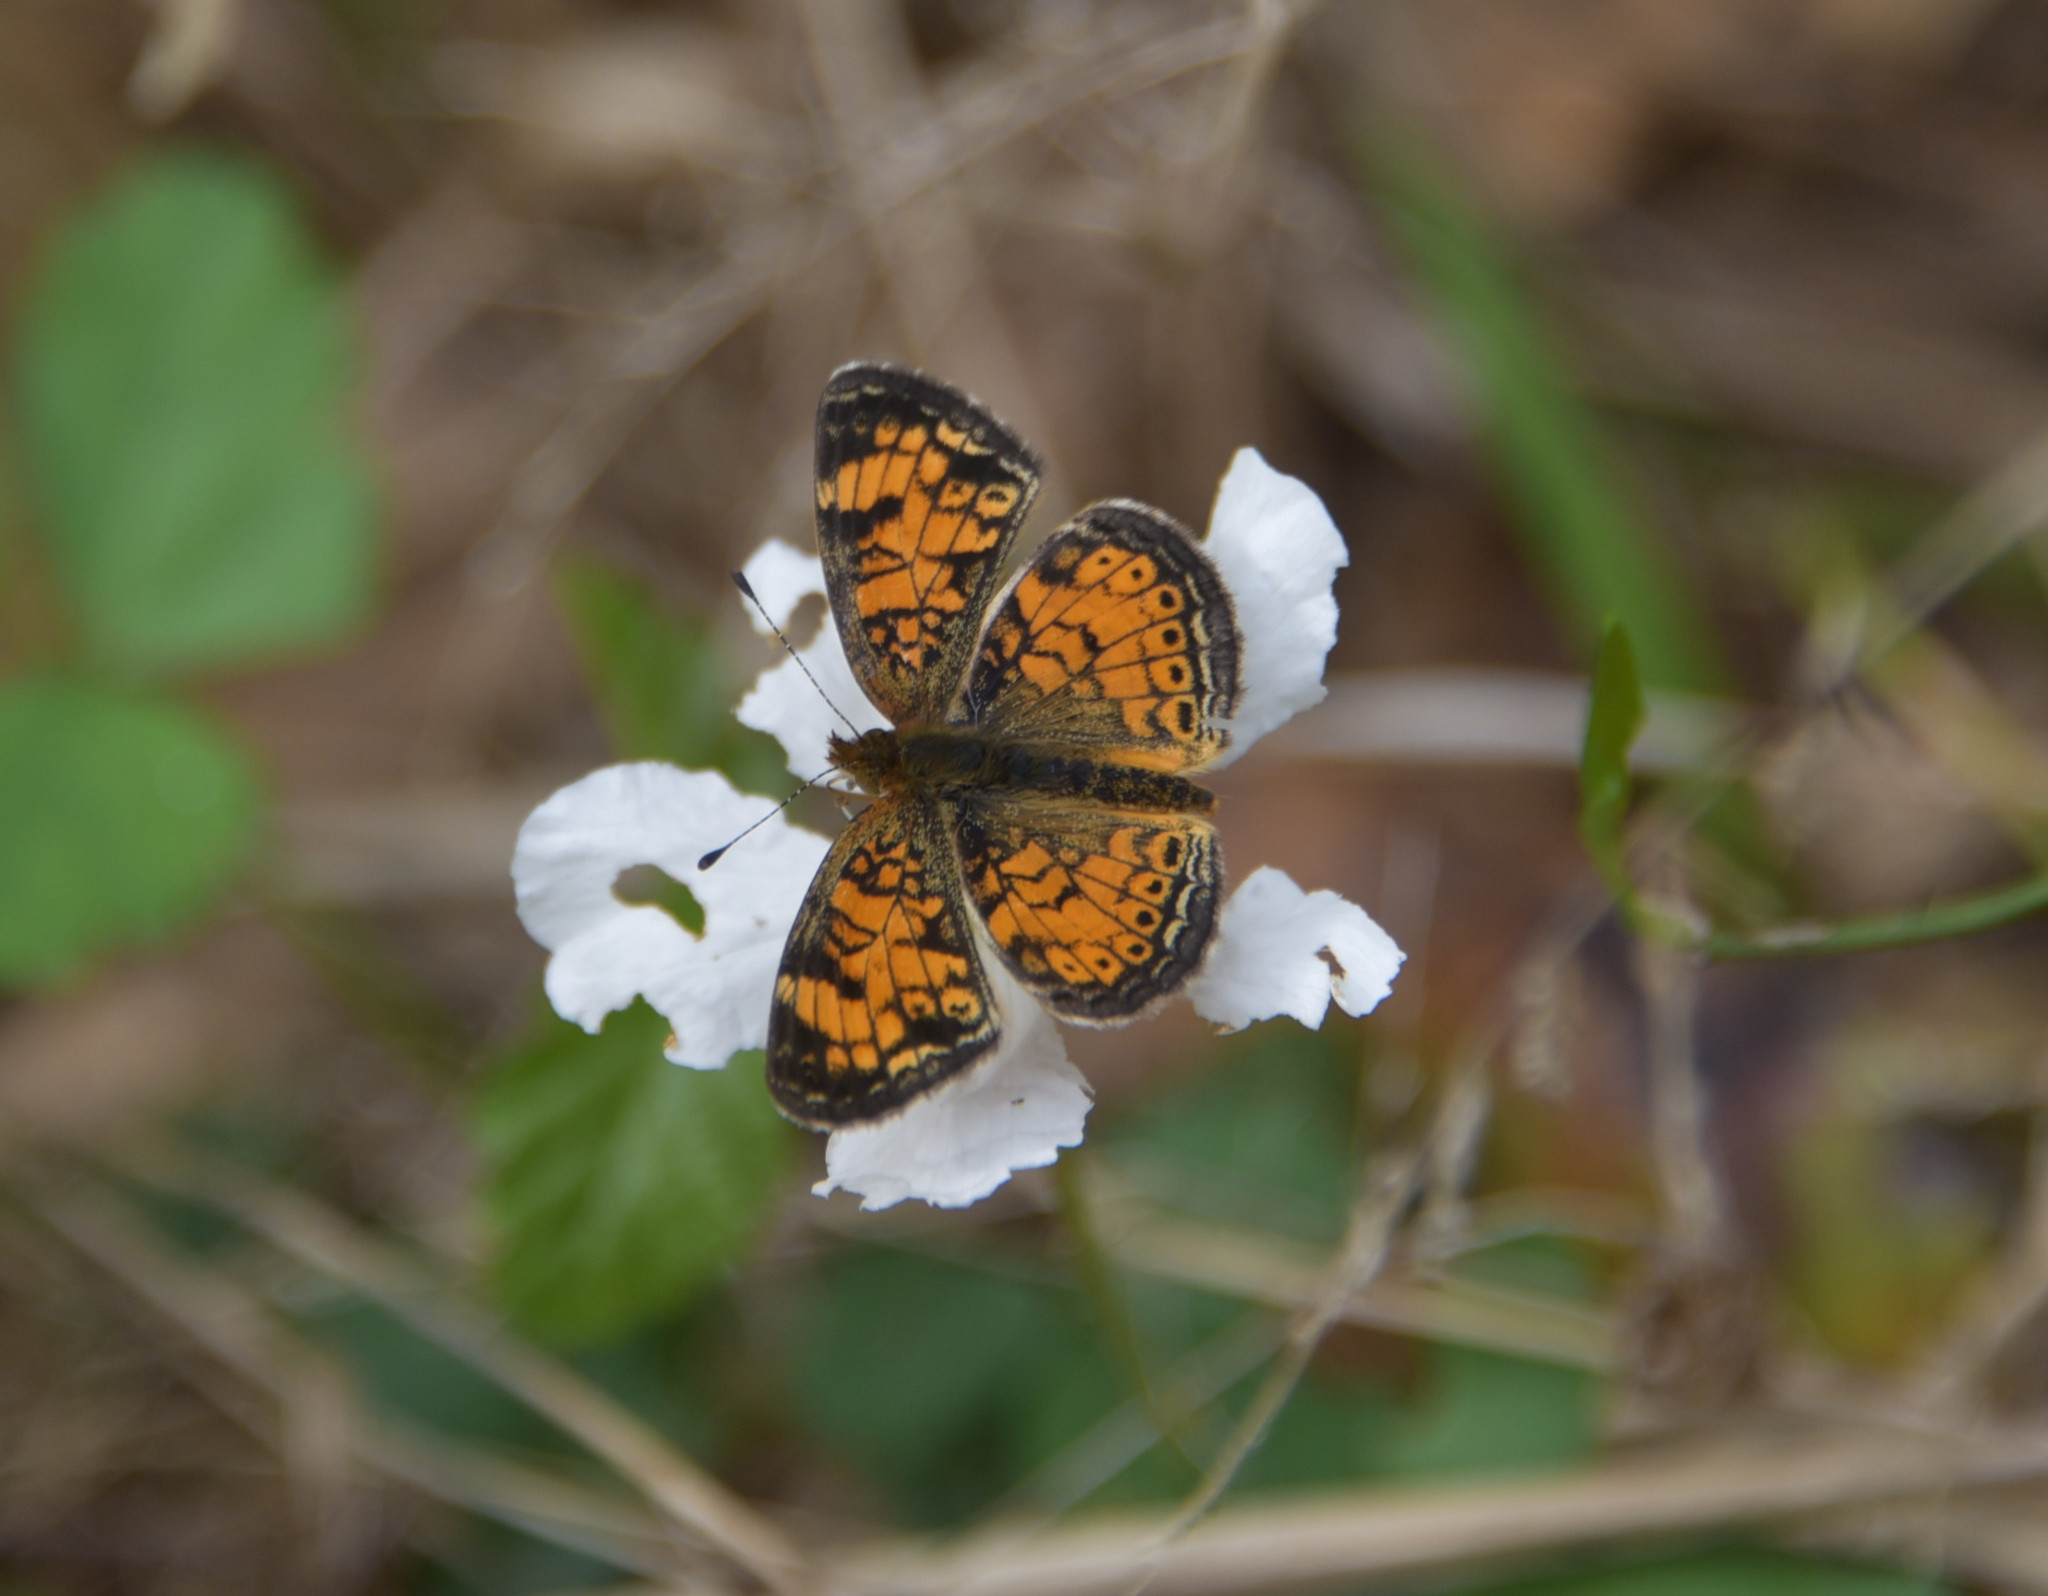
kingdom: Animalia
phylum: Arthropoda
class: Insecta
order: Lepidoptera
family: Nymphalidae
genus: Phyciodes
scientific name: Phyciodes tharos
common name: Pearl crescent
